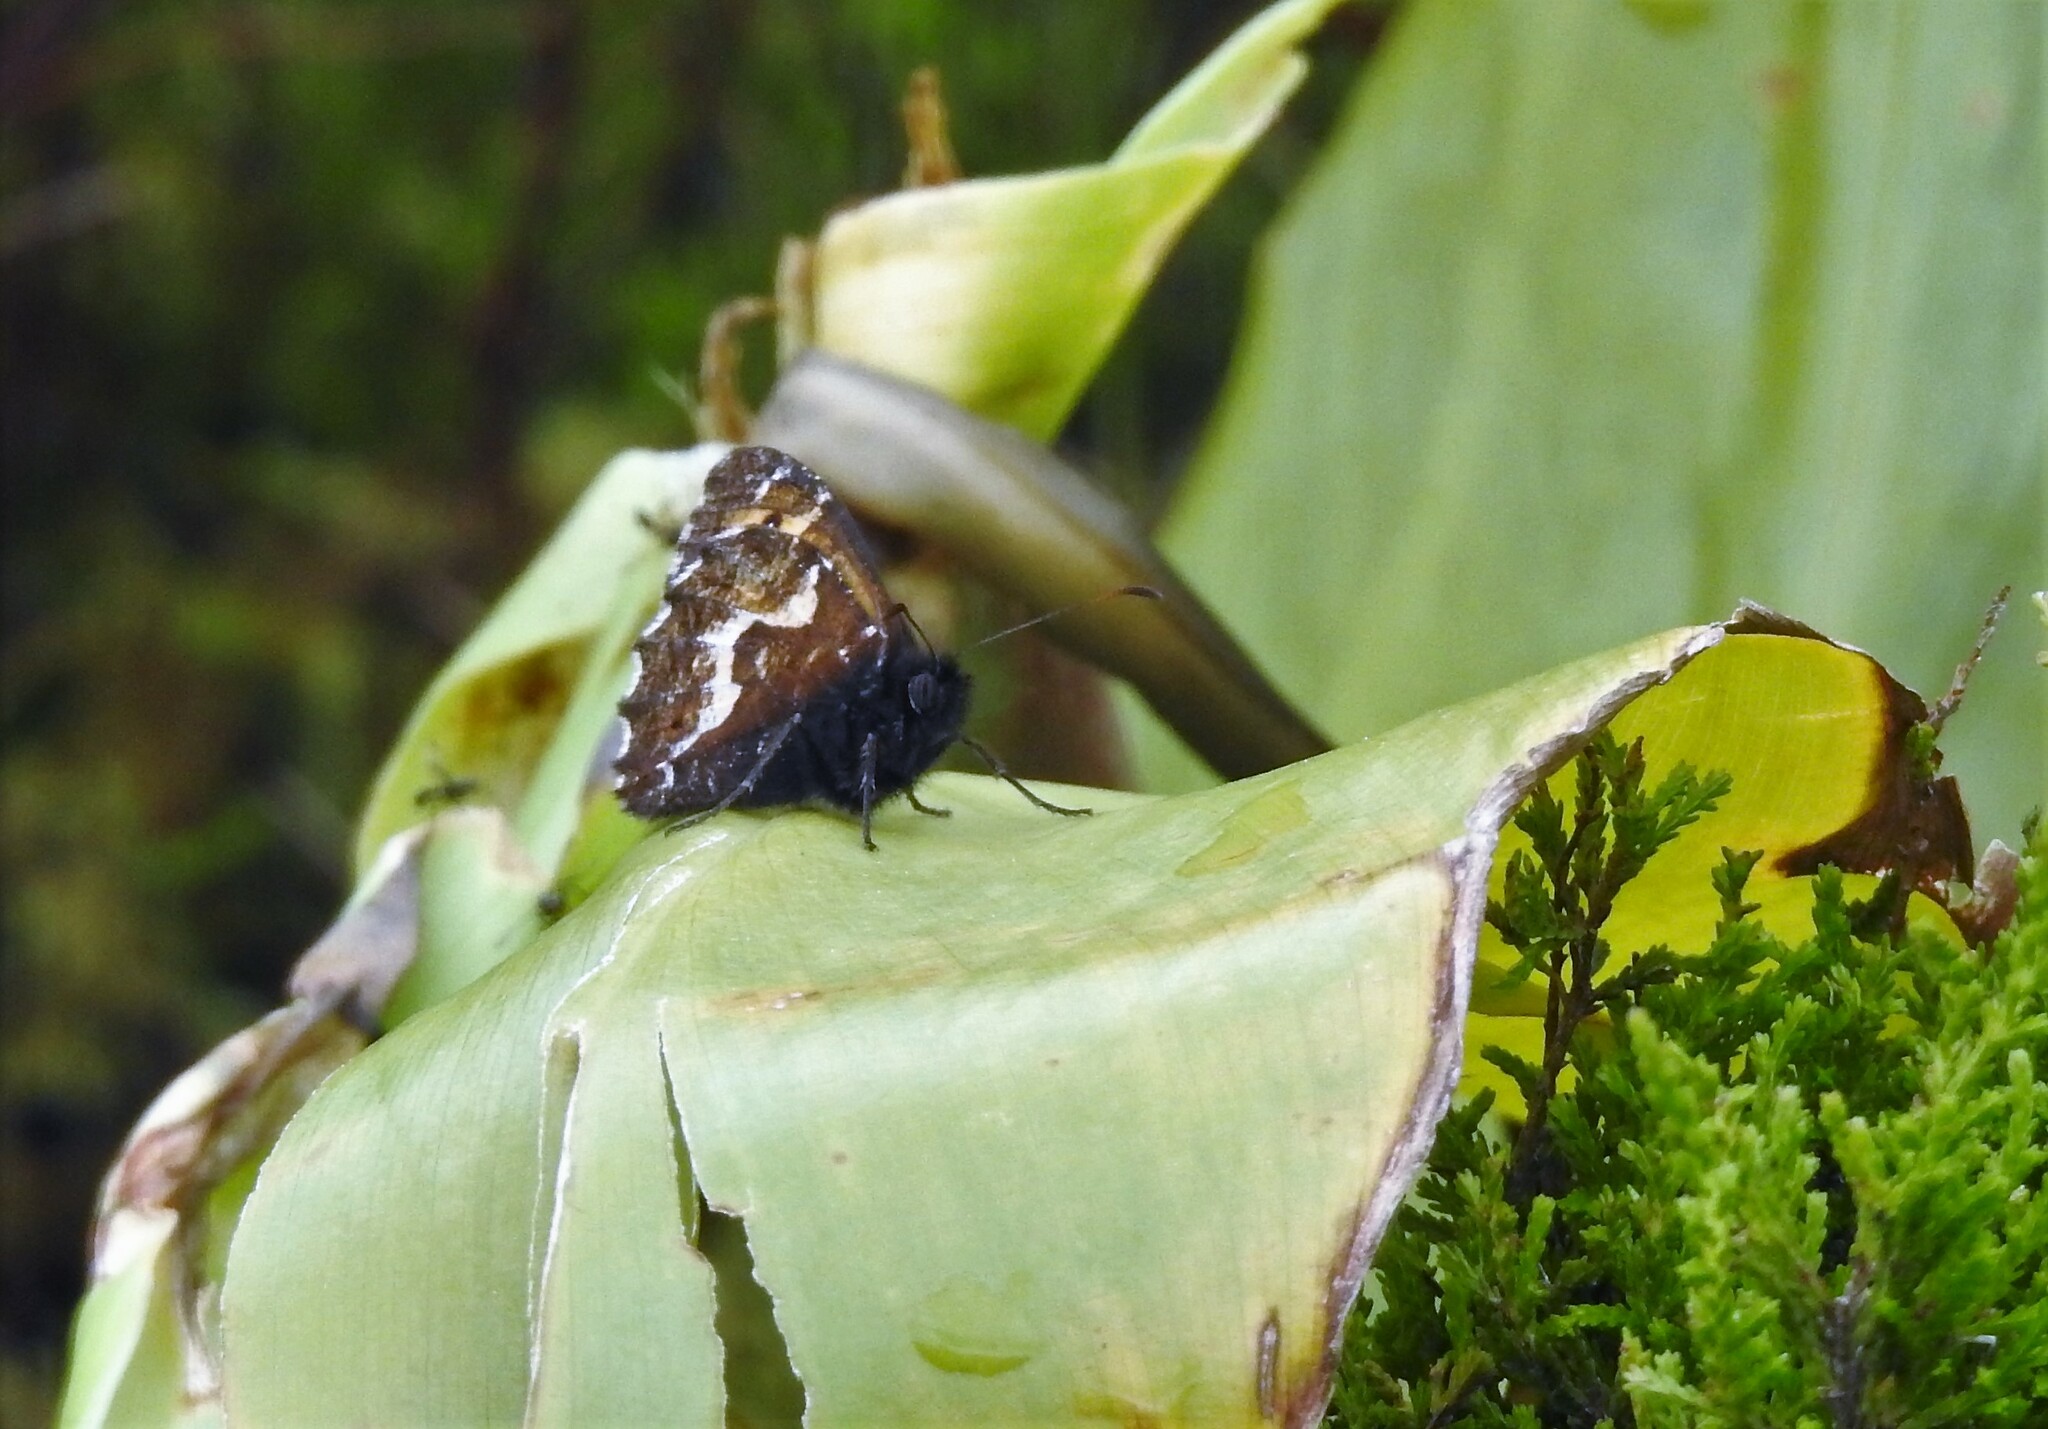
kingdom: Animalia
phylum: Arthropoda
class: Insecta
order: Lepidoptera
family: Nymphalidae
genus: Hipparchia
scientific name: Hipparchia azorinus
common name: Azores grayling
